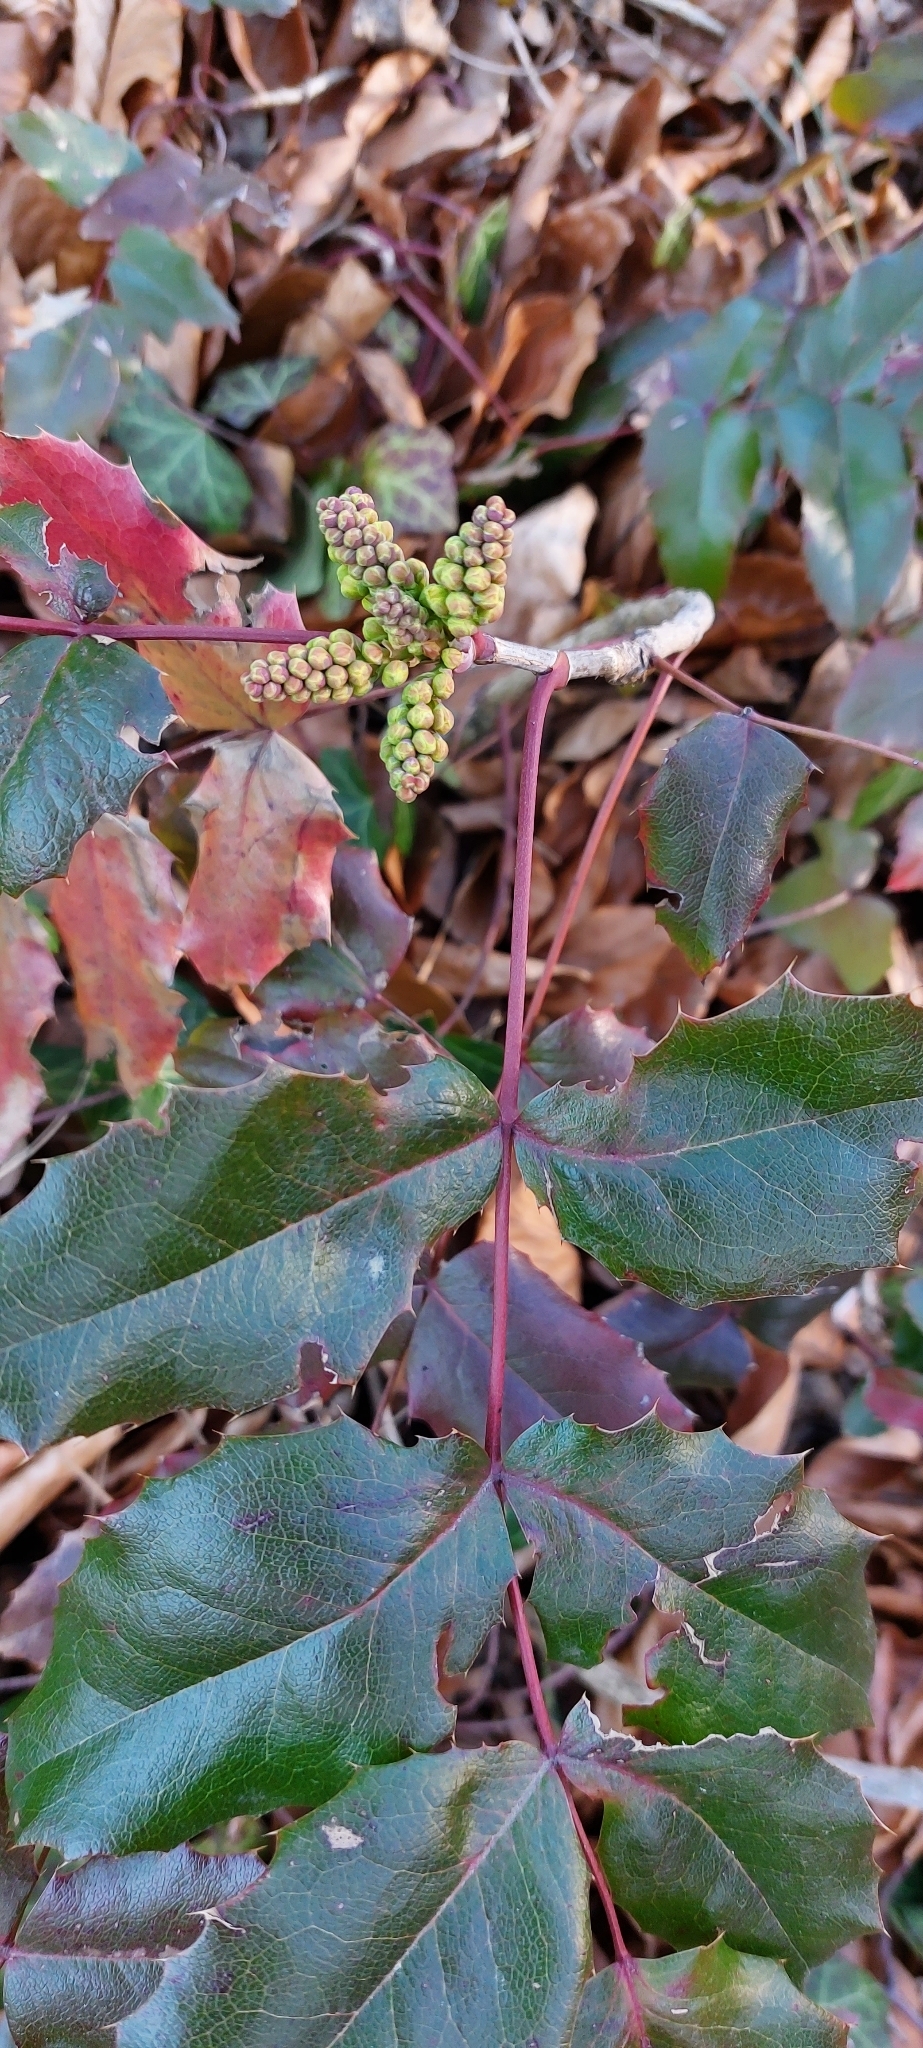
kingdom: Plantae
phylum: Tracheophyta
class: Magnoliopsida
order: Ranunculales
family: Berberidaceae
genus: Mahonia
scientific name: Mahonia aquifolium
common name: Oregon-grape
